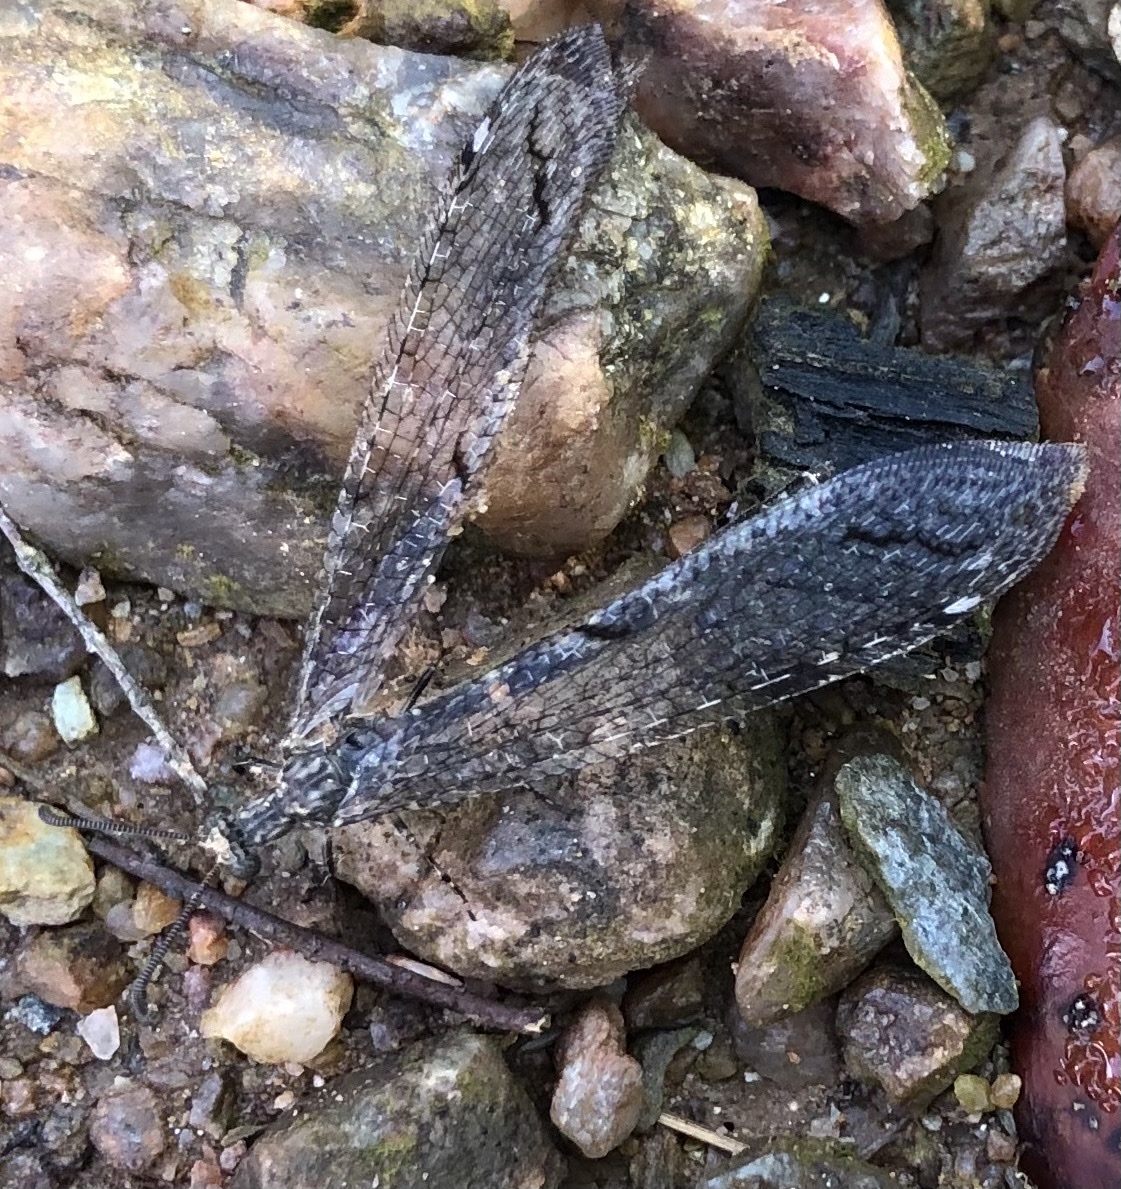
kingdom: Animalia
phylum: Arthropoda
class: Insecta
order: Neuroptera
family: Myrmeleontidae
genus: Distoleon
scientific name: Distoleon tetragrammicus
